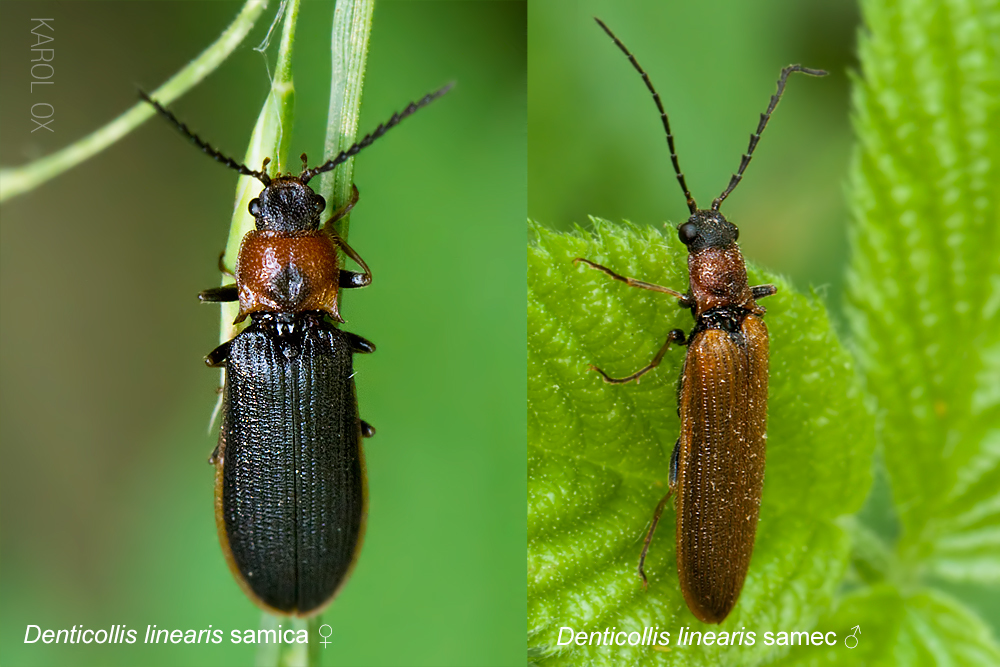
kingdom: Animalia
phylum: Arthropoda
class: Insecta
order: Coleoptera
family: Elateridae
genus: Denticollis
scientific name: Denticollis linearis
